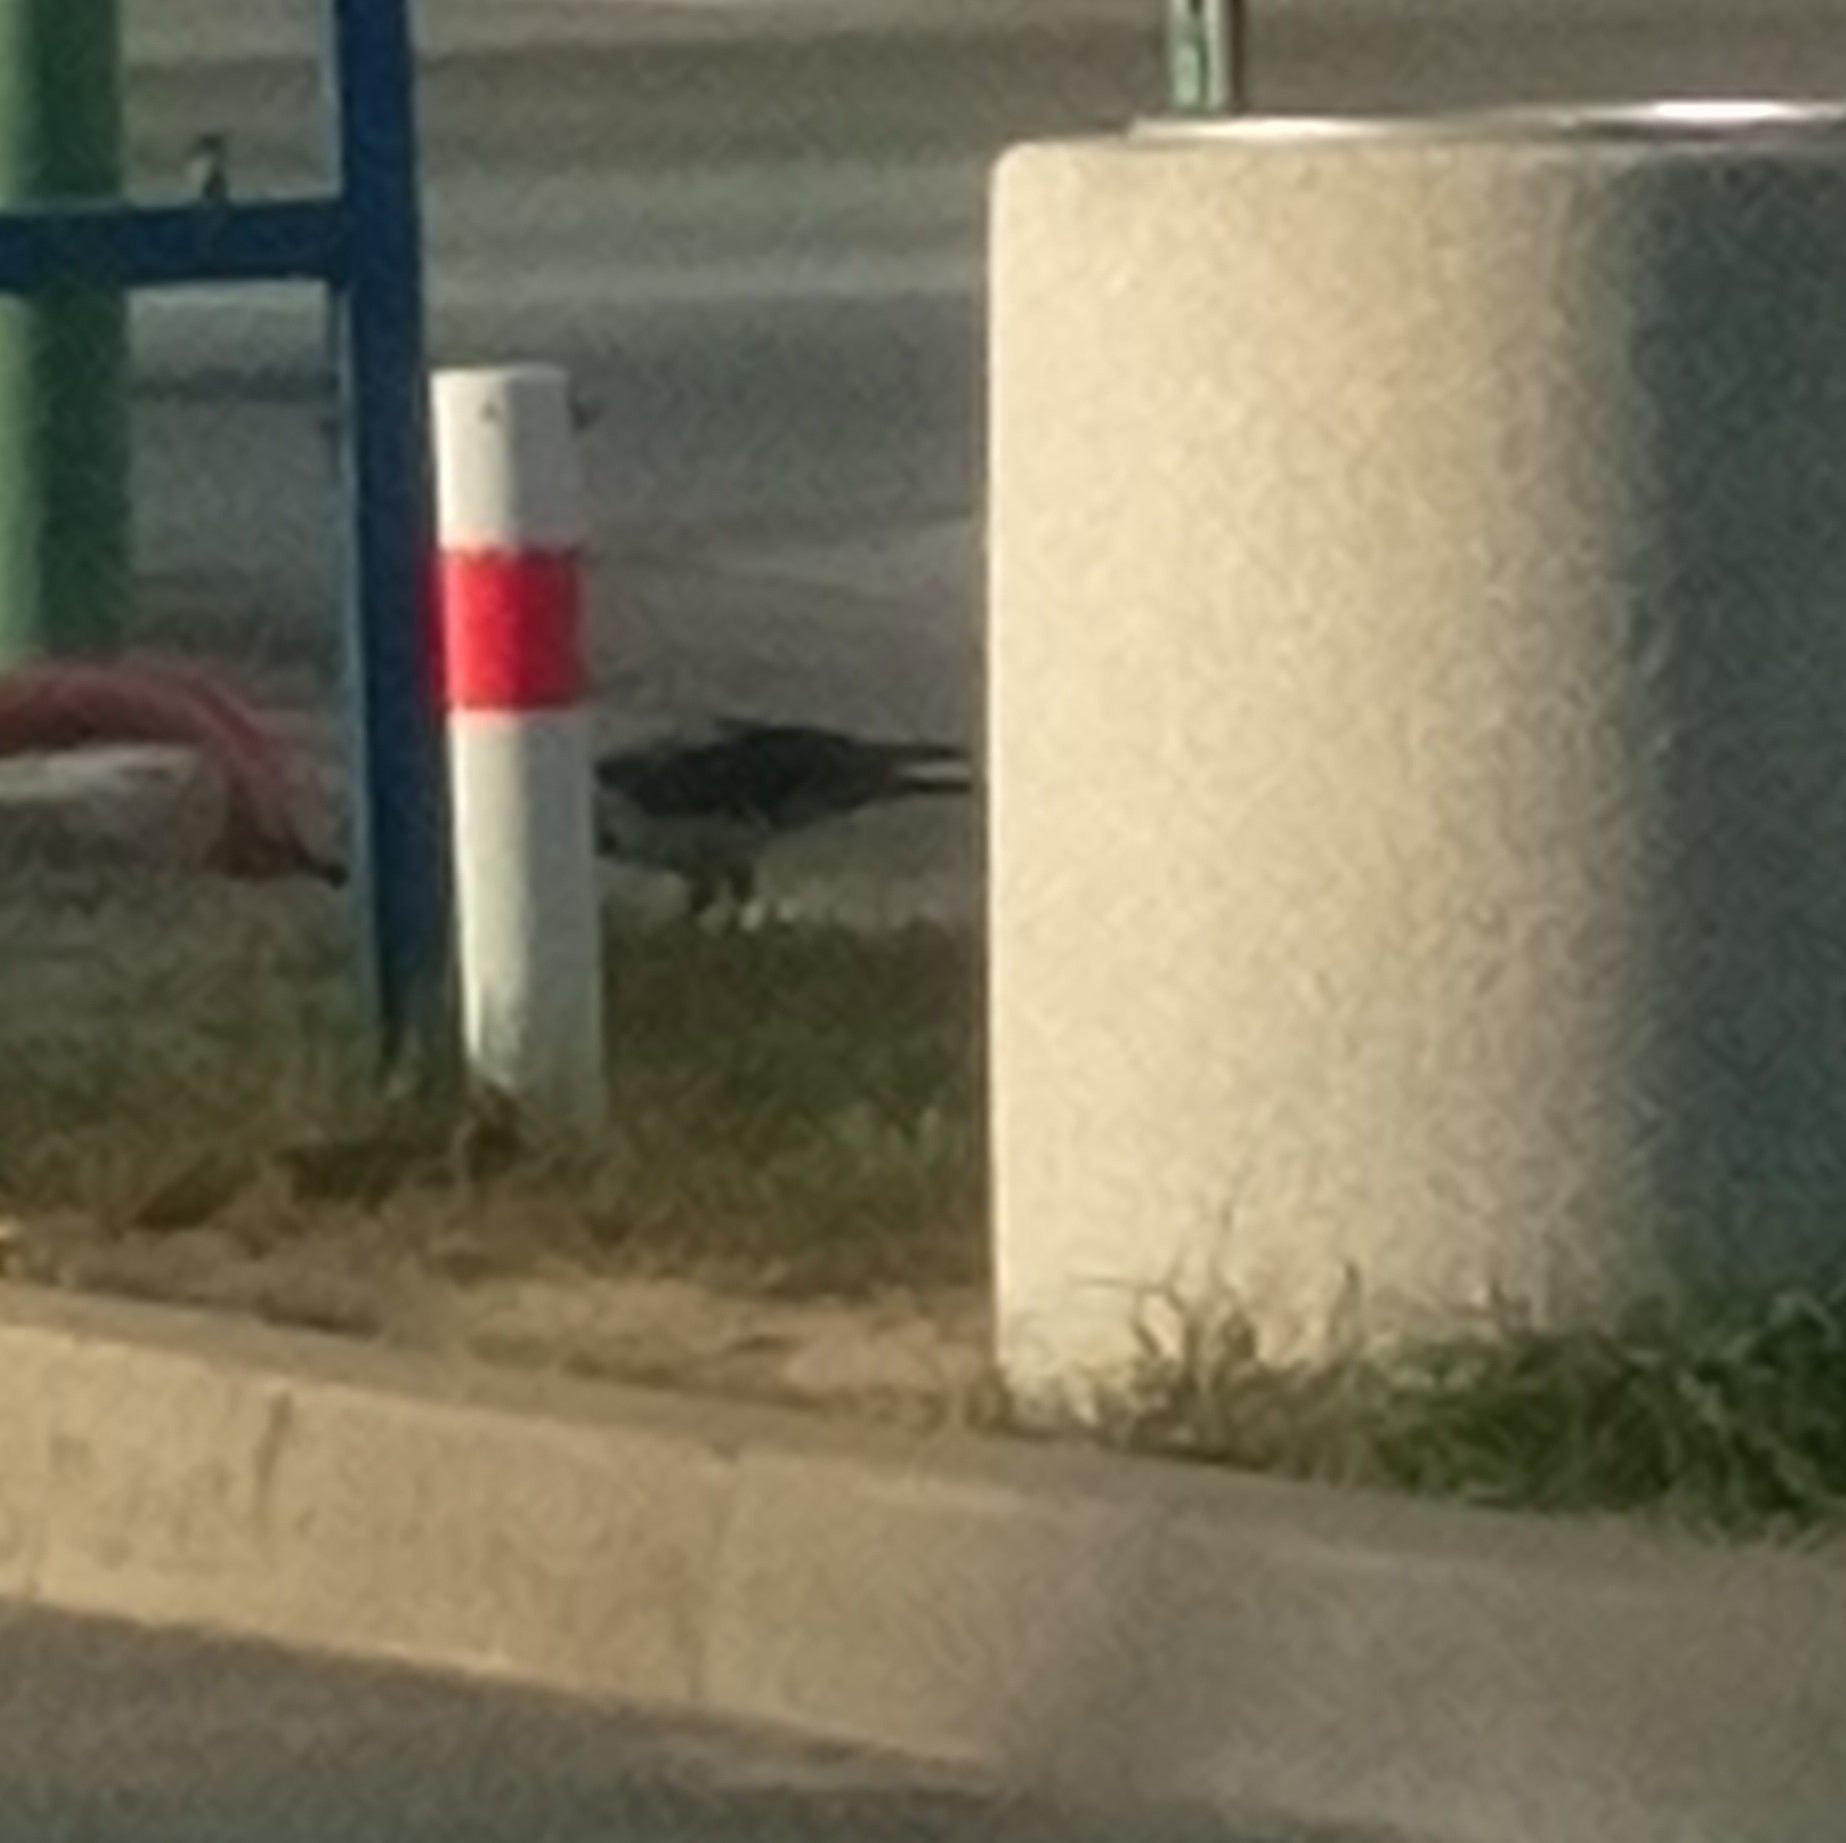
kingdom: Animalia
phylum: Chordata
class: Aves
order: Passeriformes
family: Corvidae
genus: Corvus
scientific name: Corvus cornix
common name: Hooded crow
